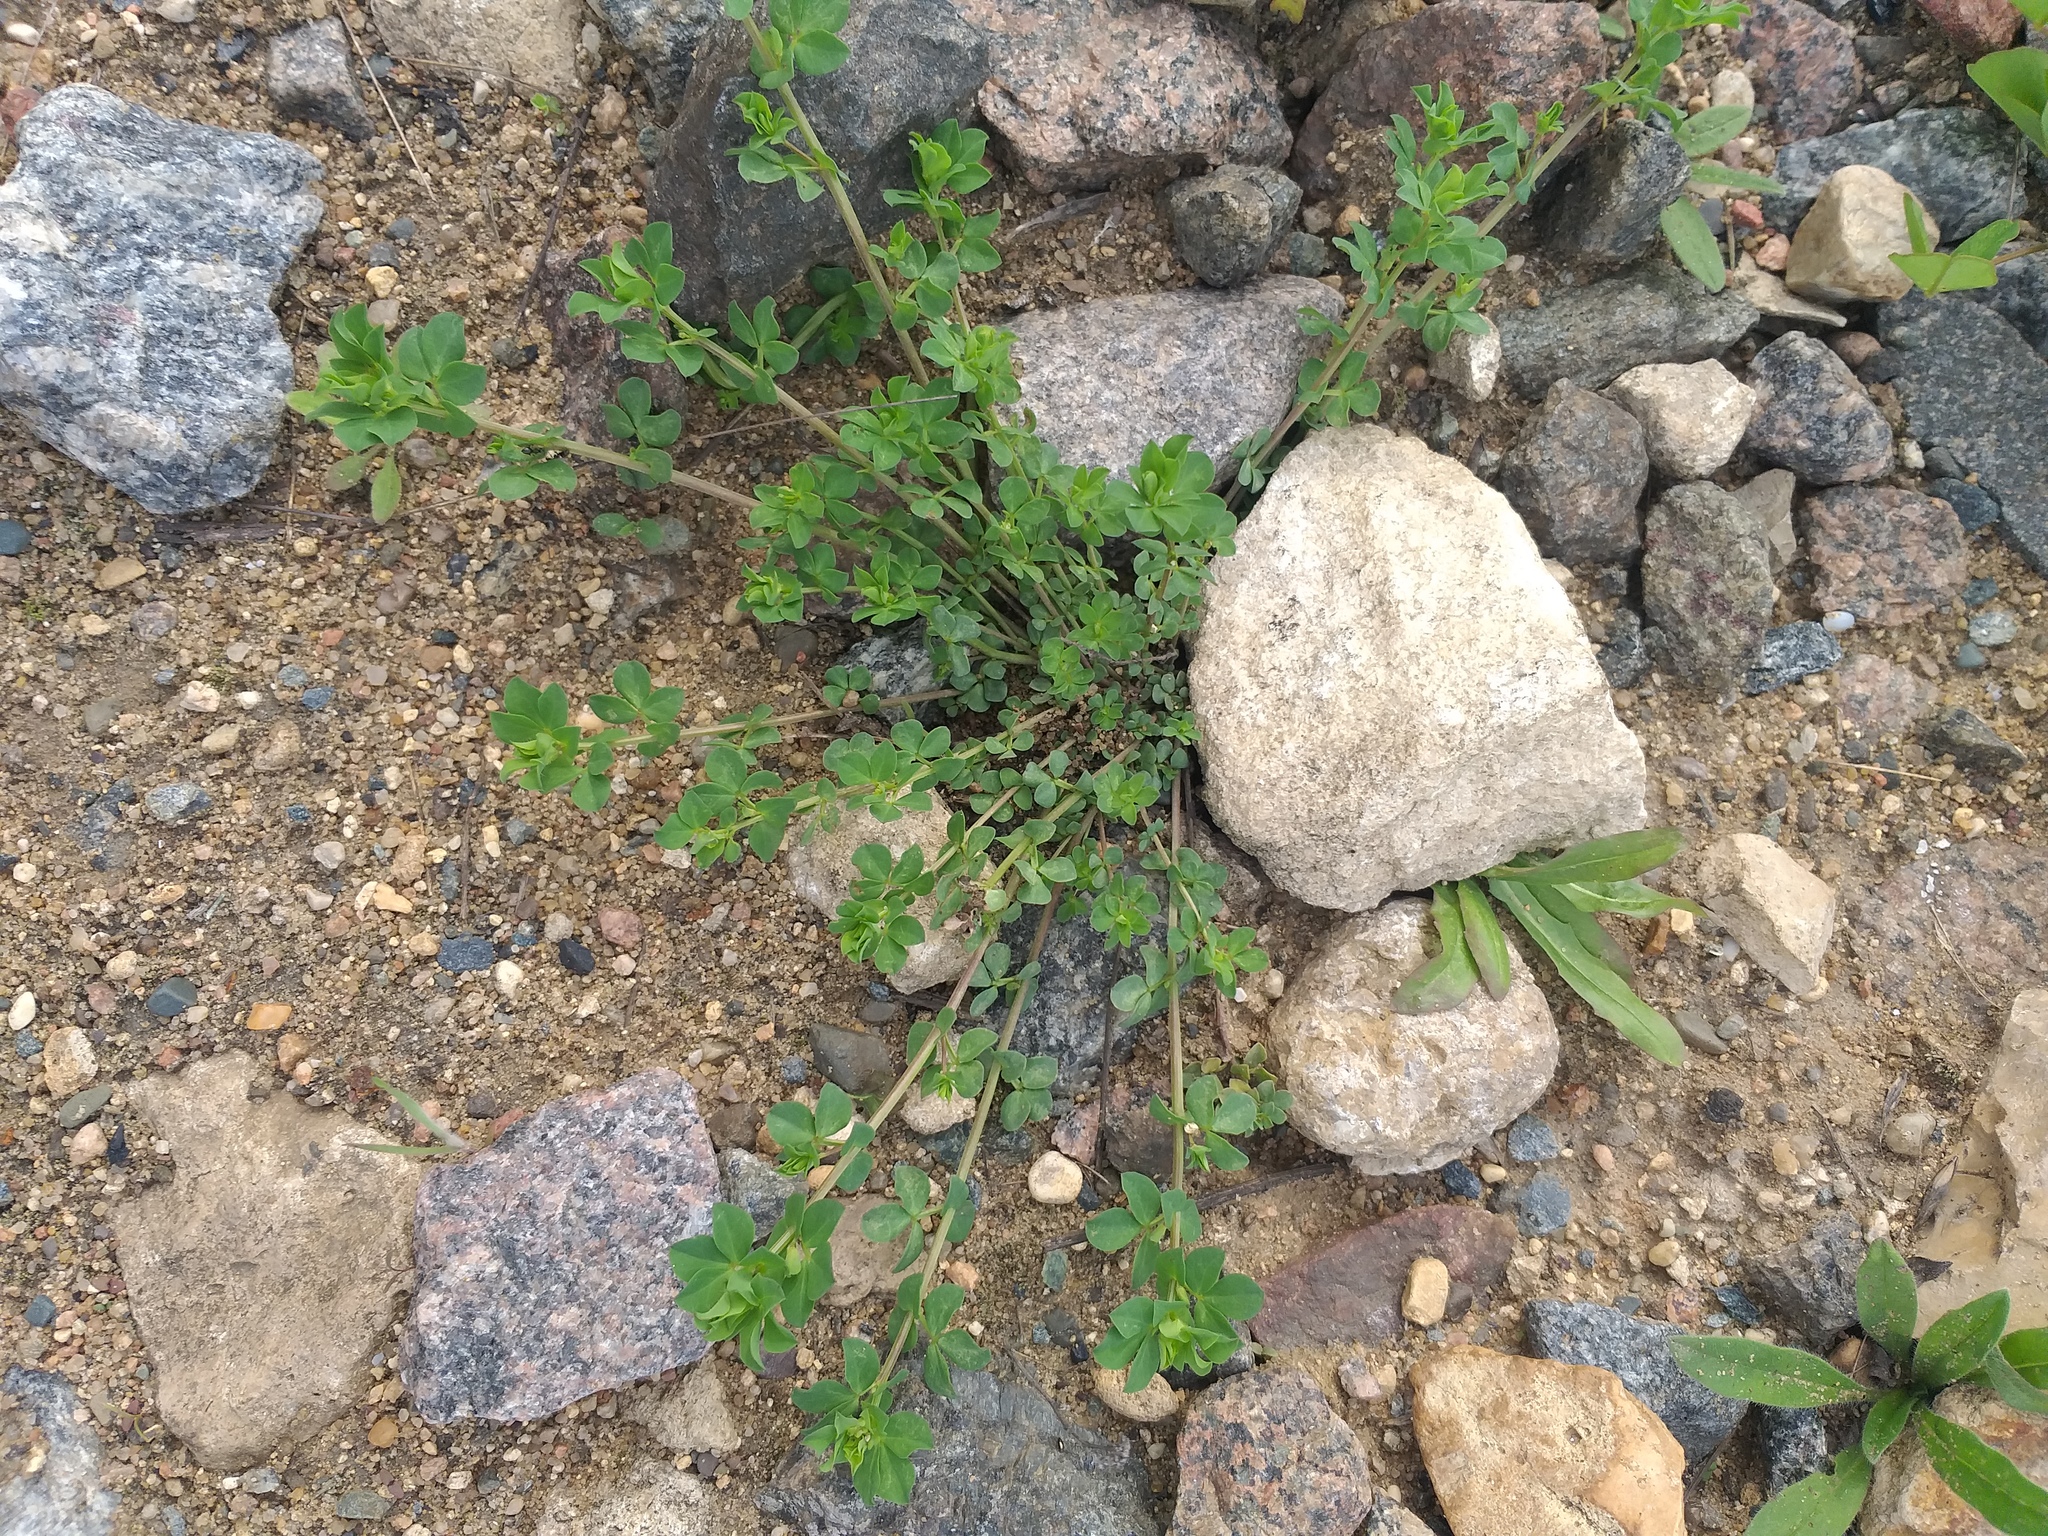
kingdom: Plantae
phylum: Tracheophyta
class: Magnoliopsida
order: Fabales
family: Fabaceae
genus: Lotus
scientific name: Lotus corniculatus
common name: Common bird's-foot-trefoil
